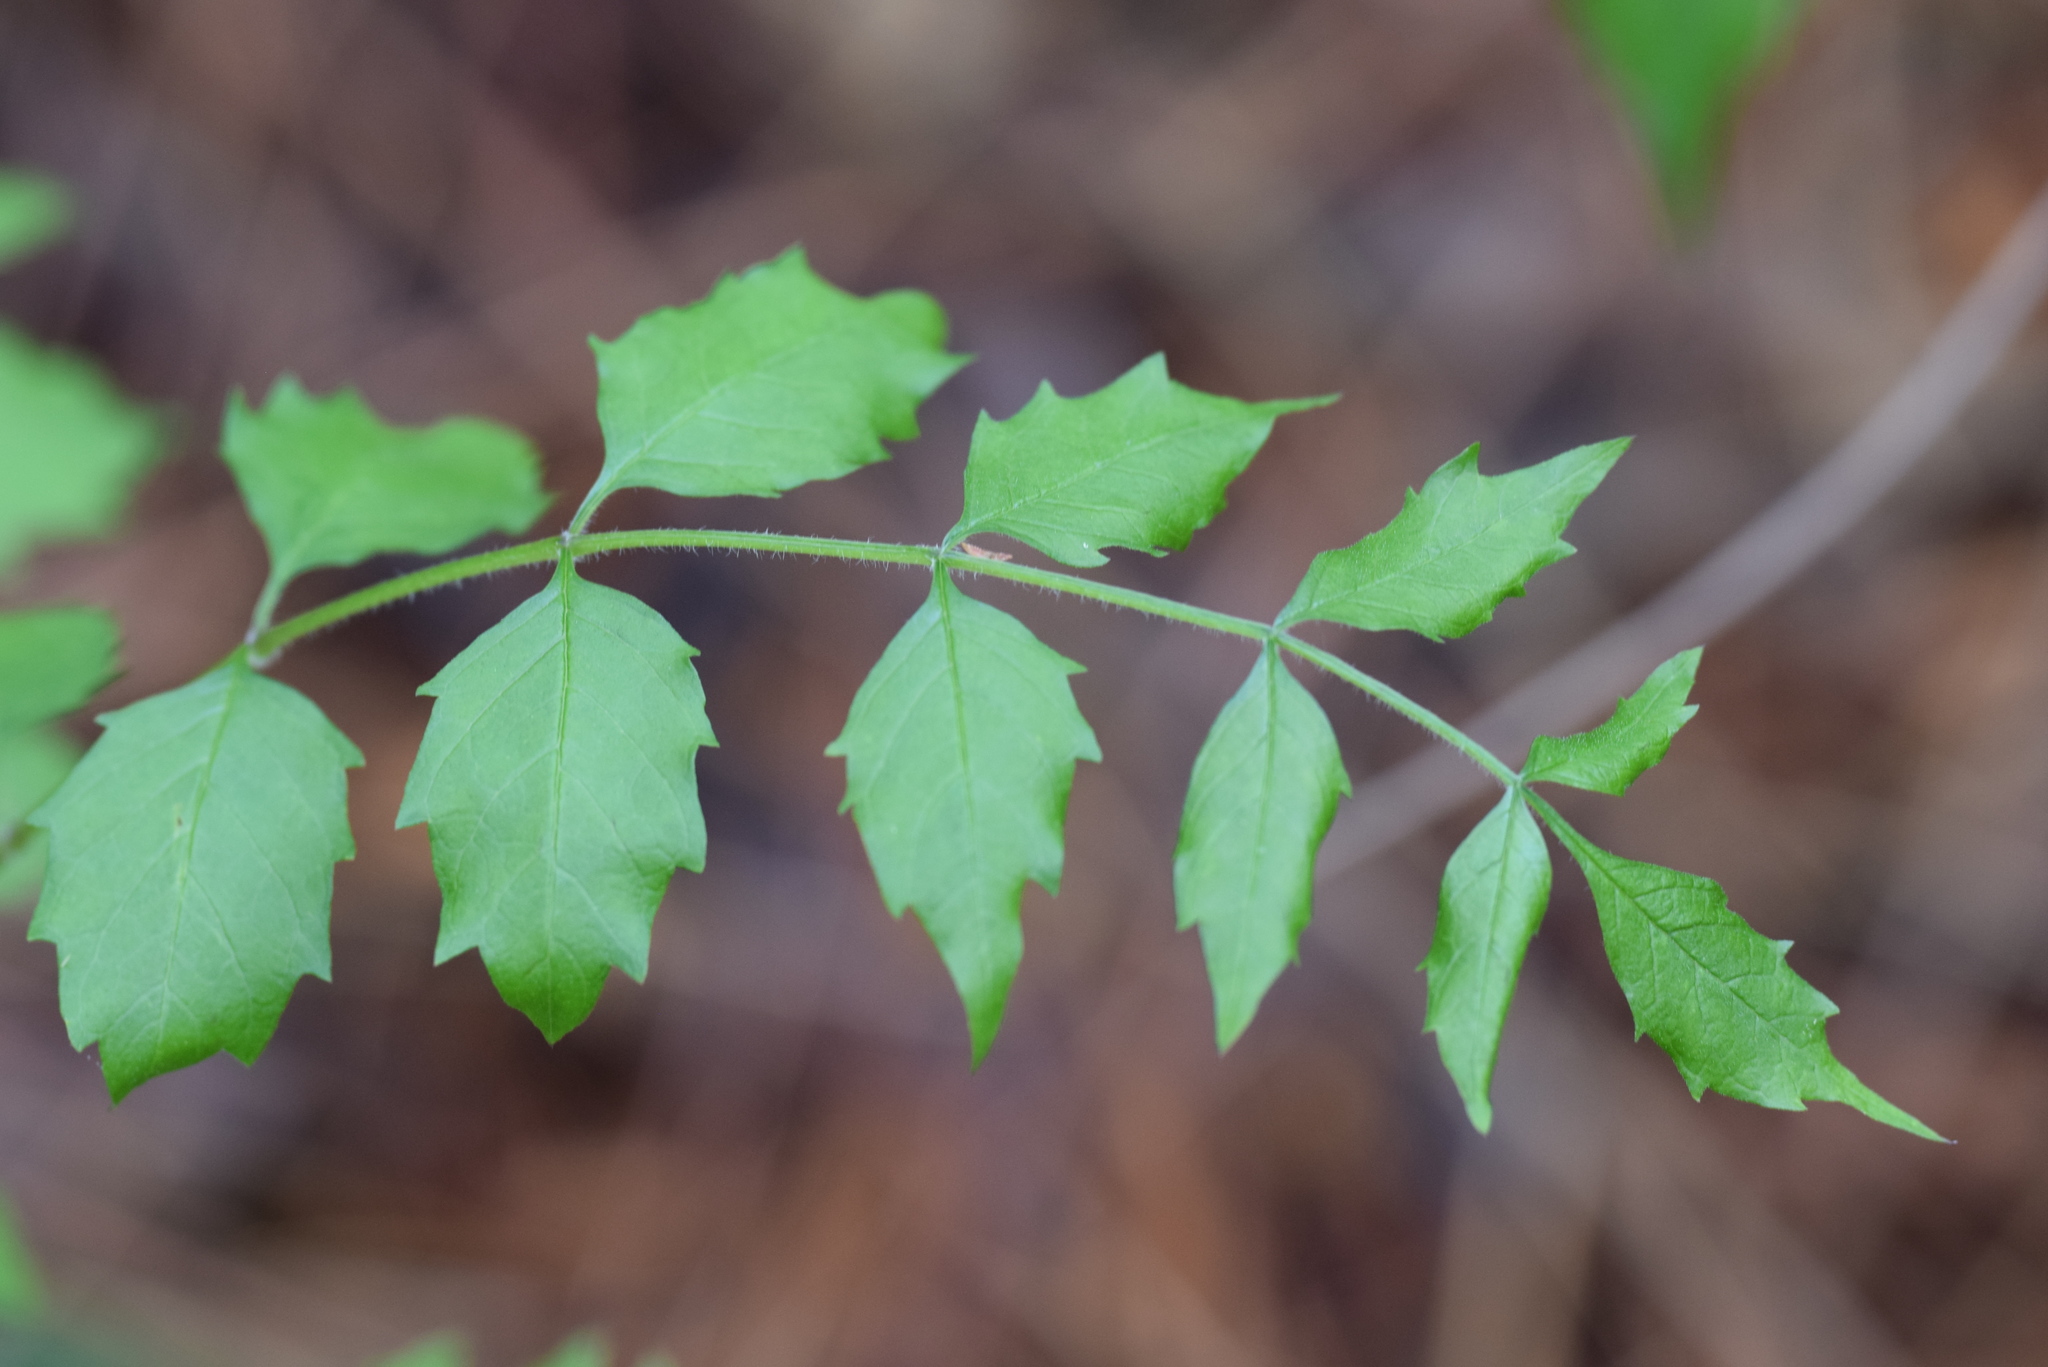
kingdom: Plantae
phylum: Tracheophyta
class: Magnoliopsida
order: Lamiales
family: Bignoniaceae
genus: Campsis
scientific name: Campsis radicans
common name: Trumpet-creeper
